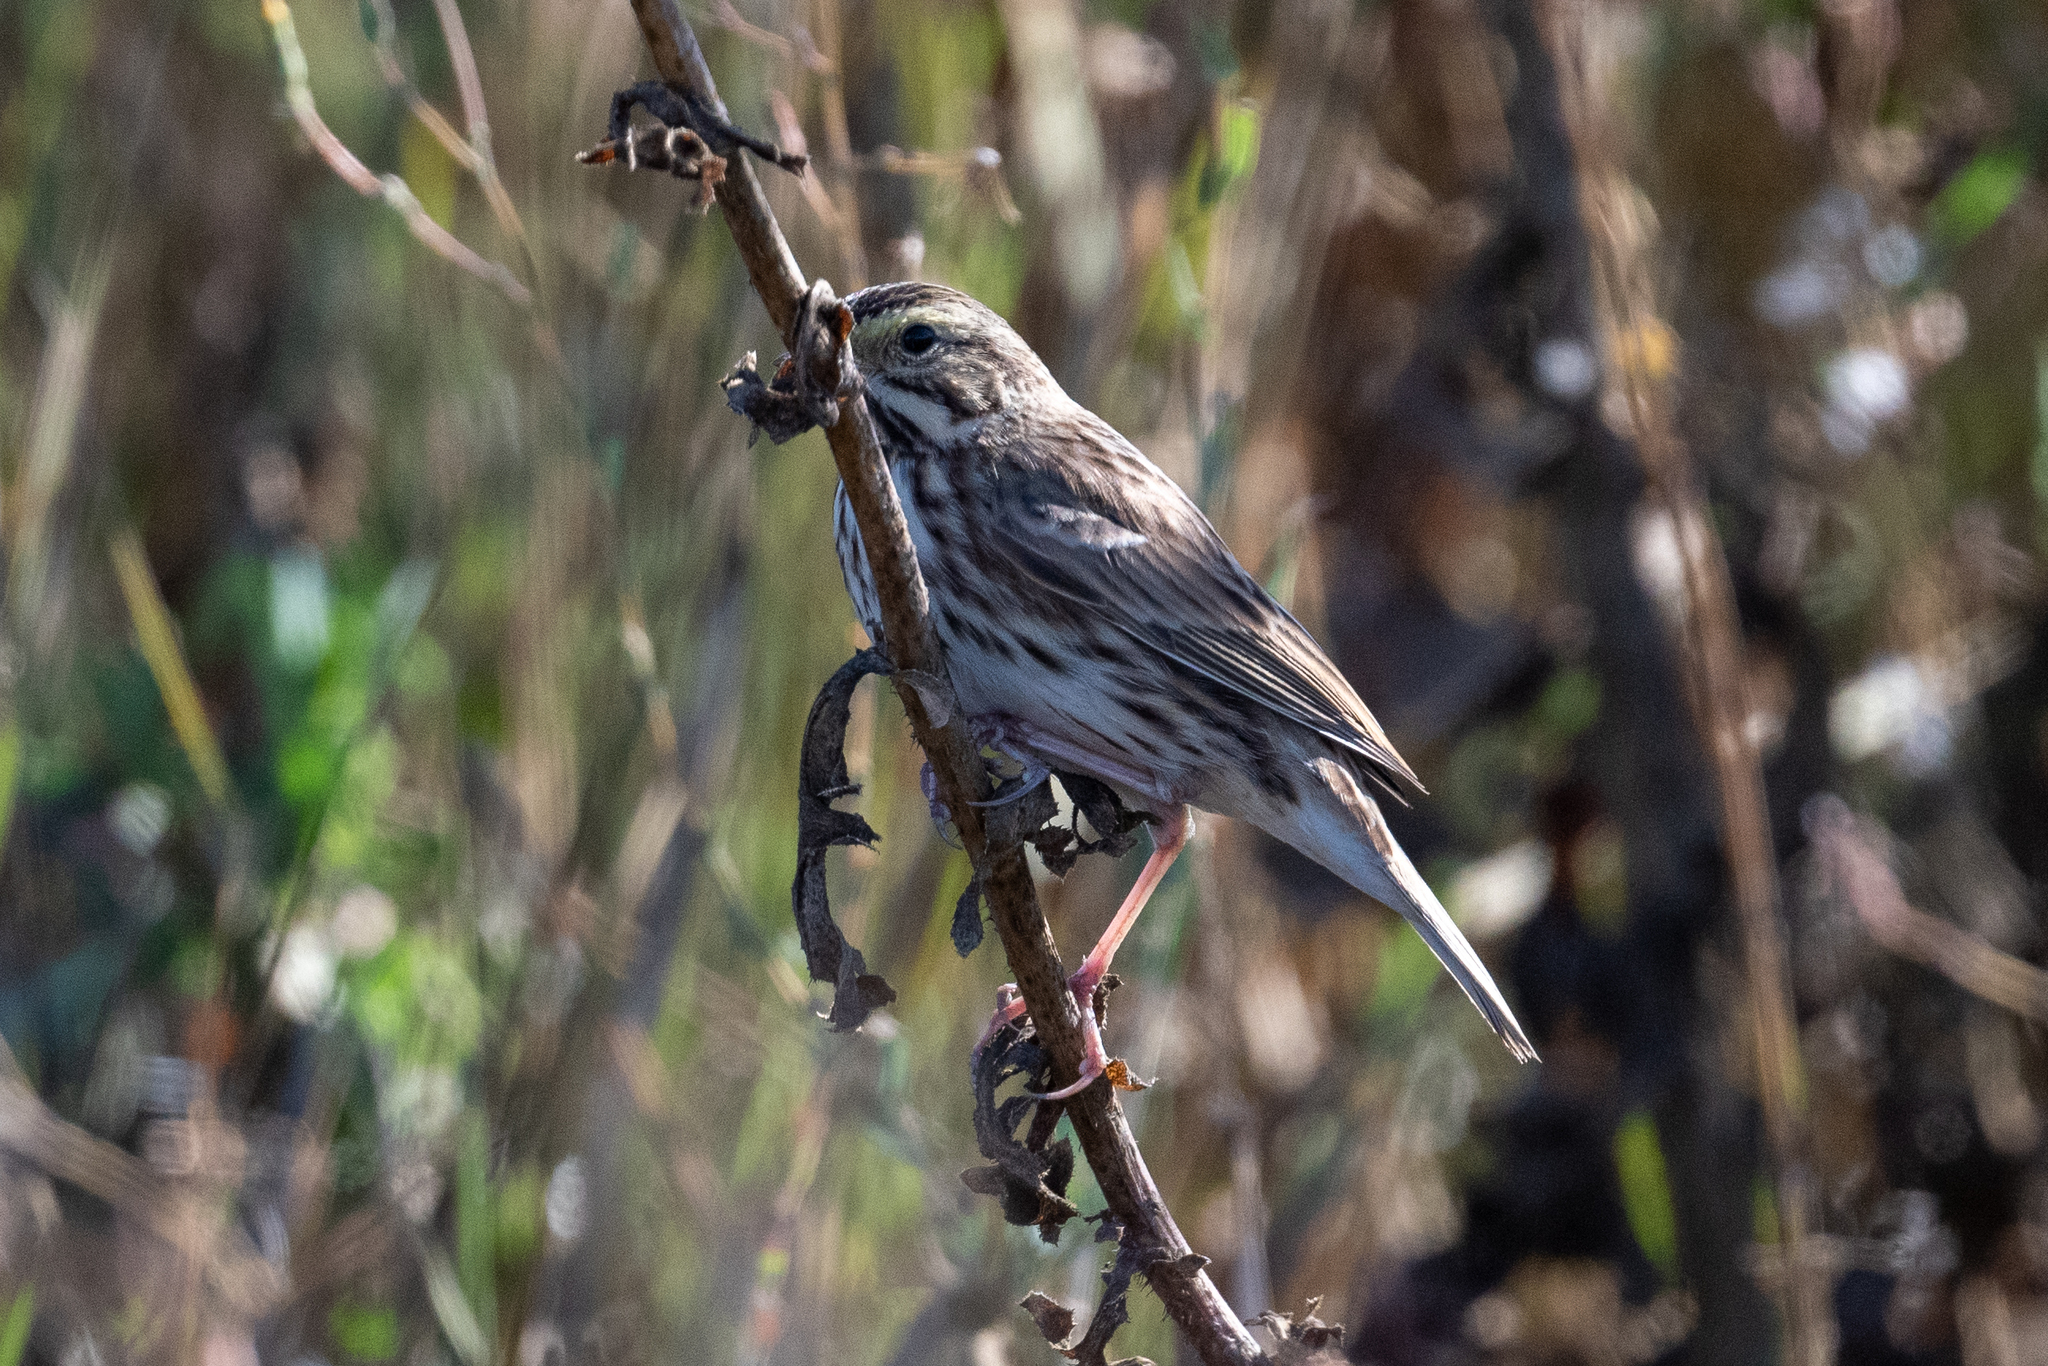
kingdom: Animalia
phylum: Chordata
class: Aves
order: Passeriformes
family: Passerellidae
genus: Passerculus
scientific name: Passerculus sandwichensis
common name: Savannah sparrow
